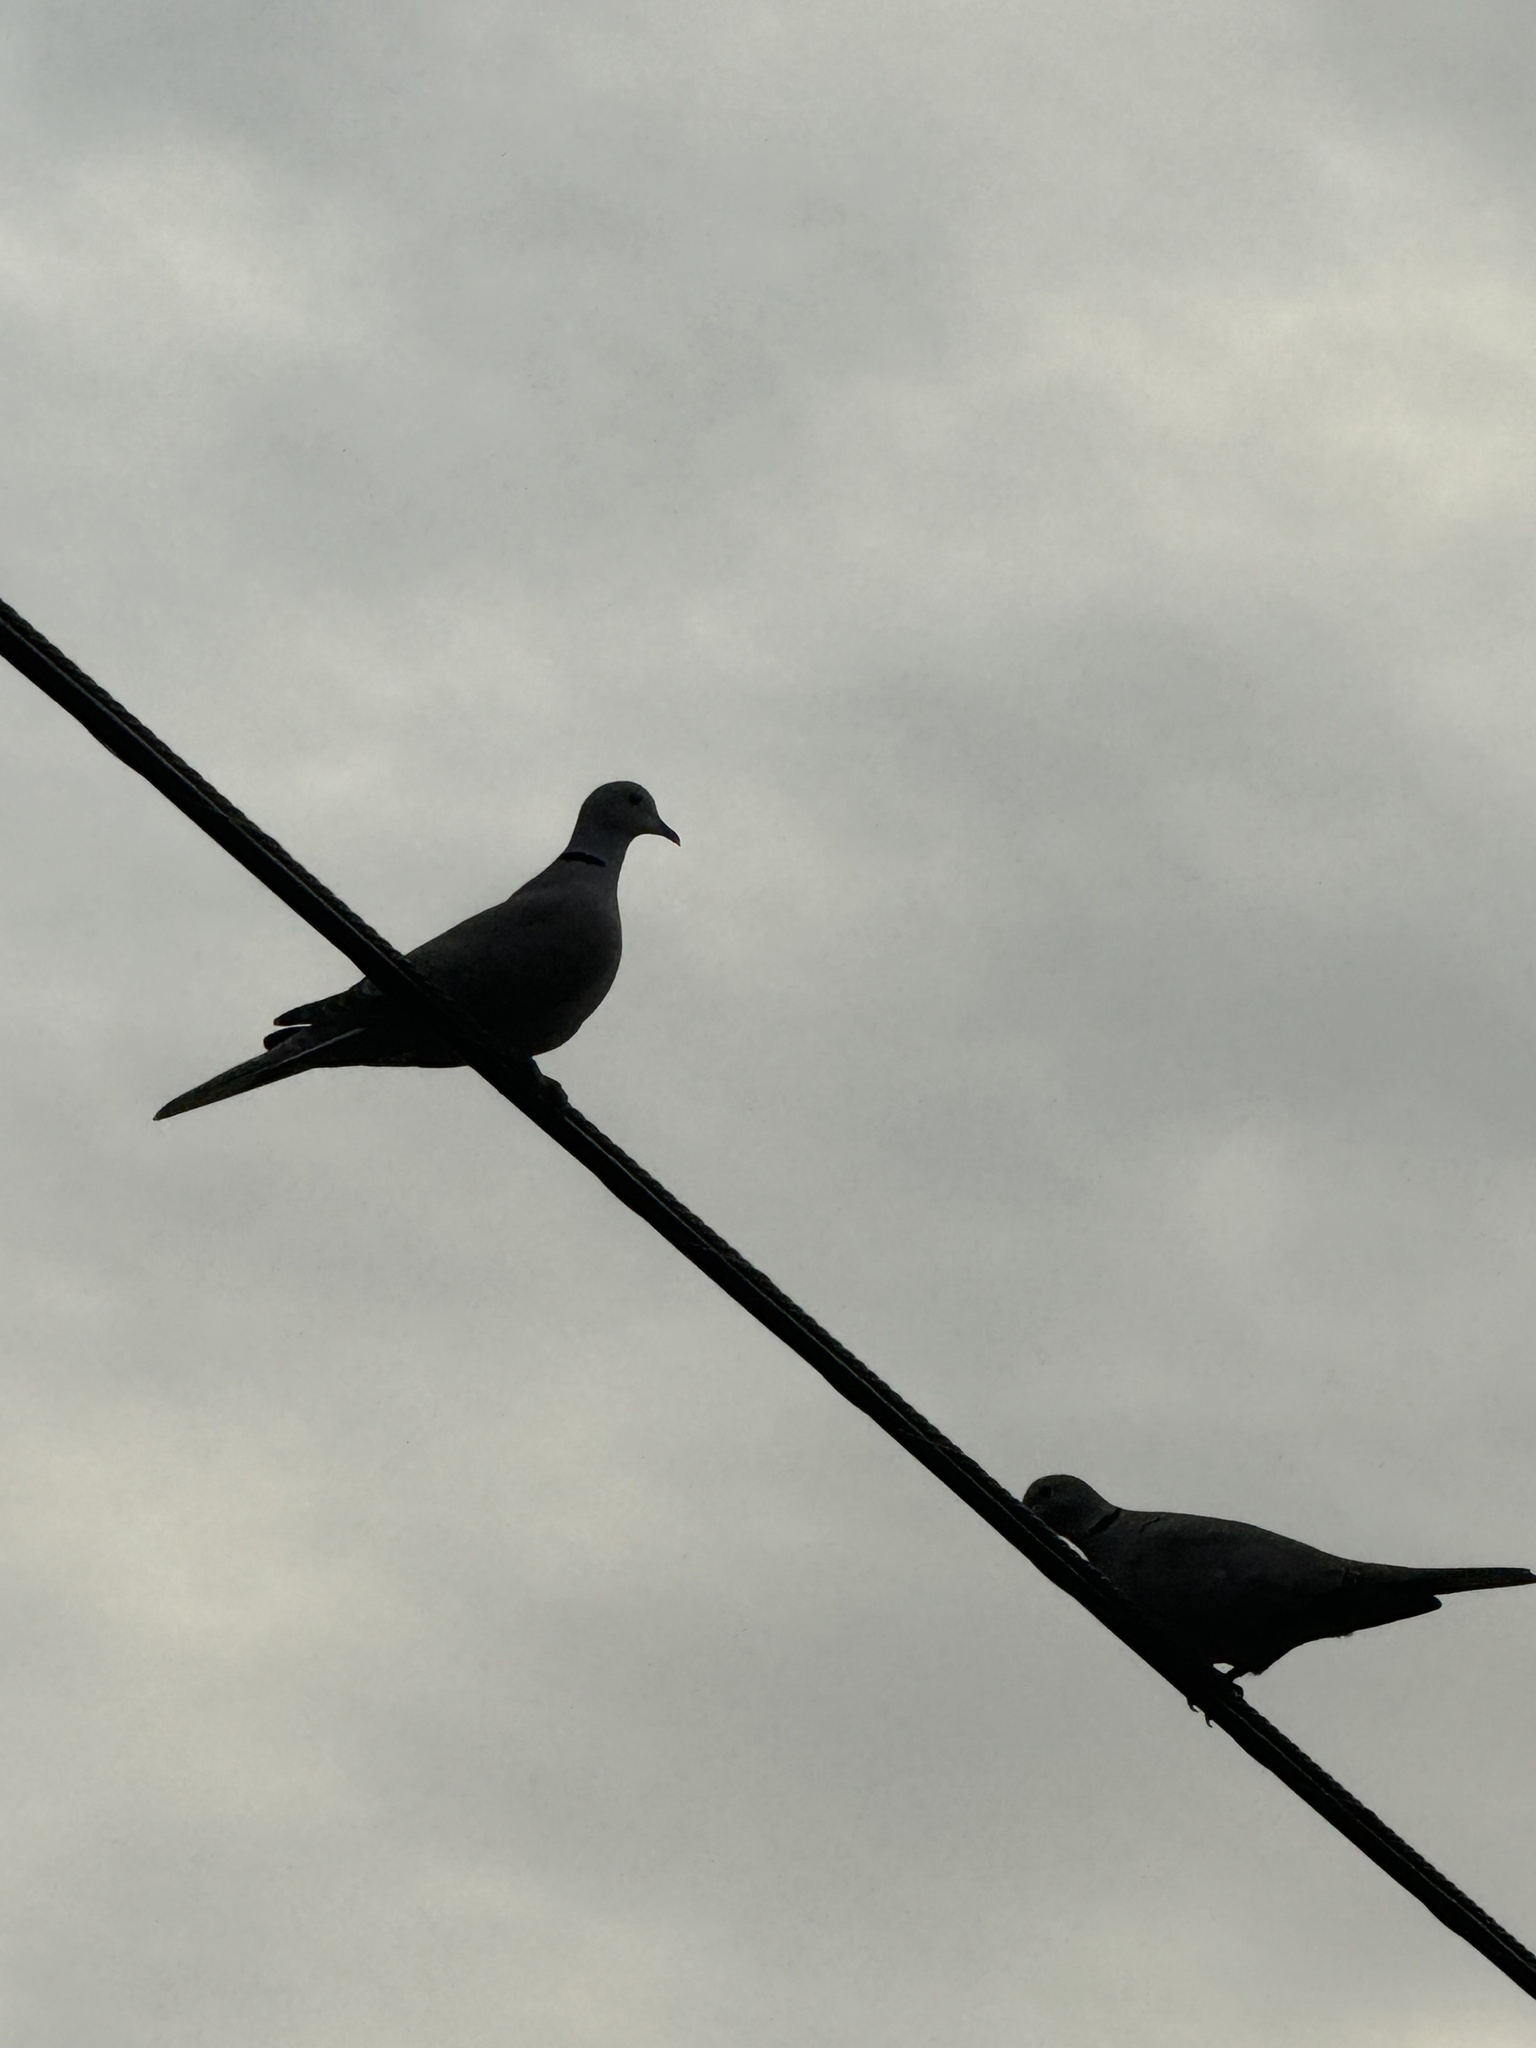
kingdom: Animalia
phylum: Chordata
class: Aves
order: Columbiformes
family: Columbidae
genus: Streptopelia
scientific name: Streptopelia decaocto
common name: Eurasian collared dove
